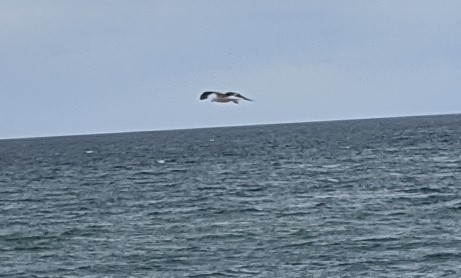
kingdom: Animalia
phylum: Chordata
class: Aves
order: Charadriiformes
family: Laridae
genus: Larus
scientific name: Larus marinus
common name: Great black-backed gull
